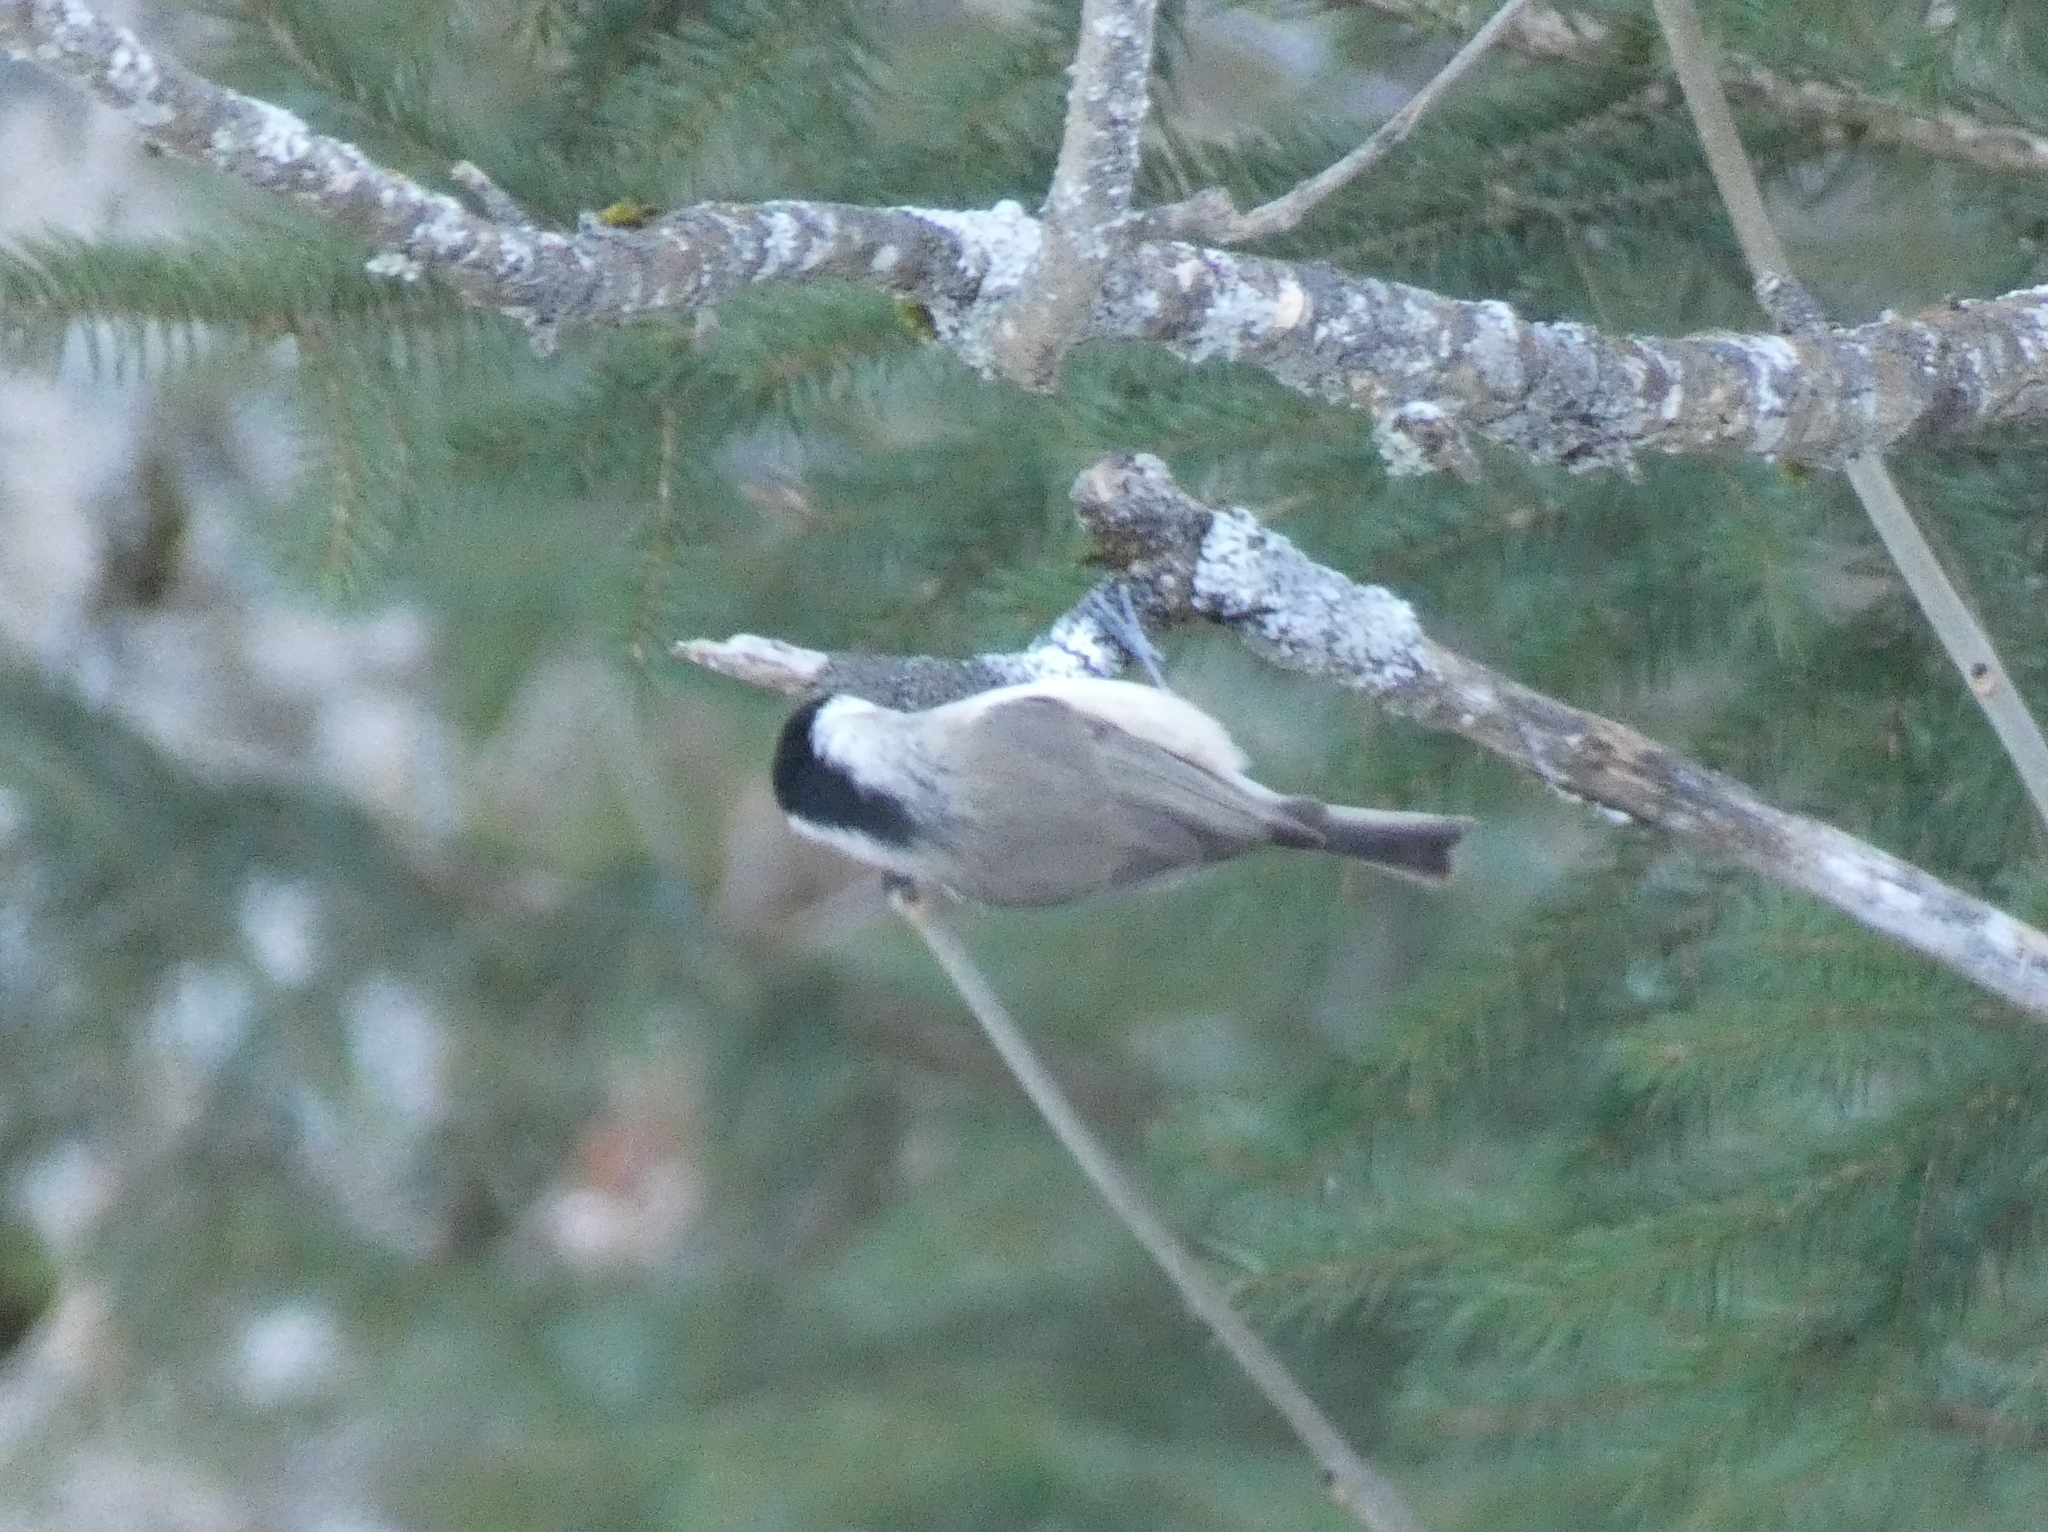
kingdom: Animalia
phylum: Chordata
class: Aves
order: Passeriformes
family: Paridae
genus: Poecile
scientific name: Poecile palustris
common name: Marsh tit
